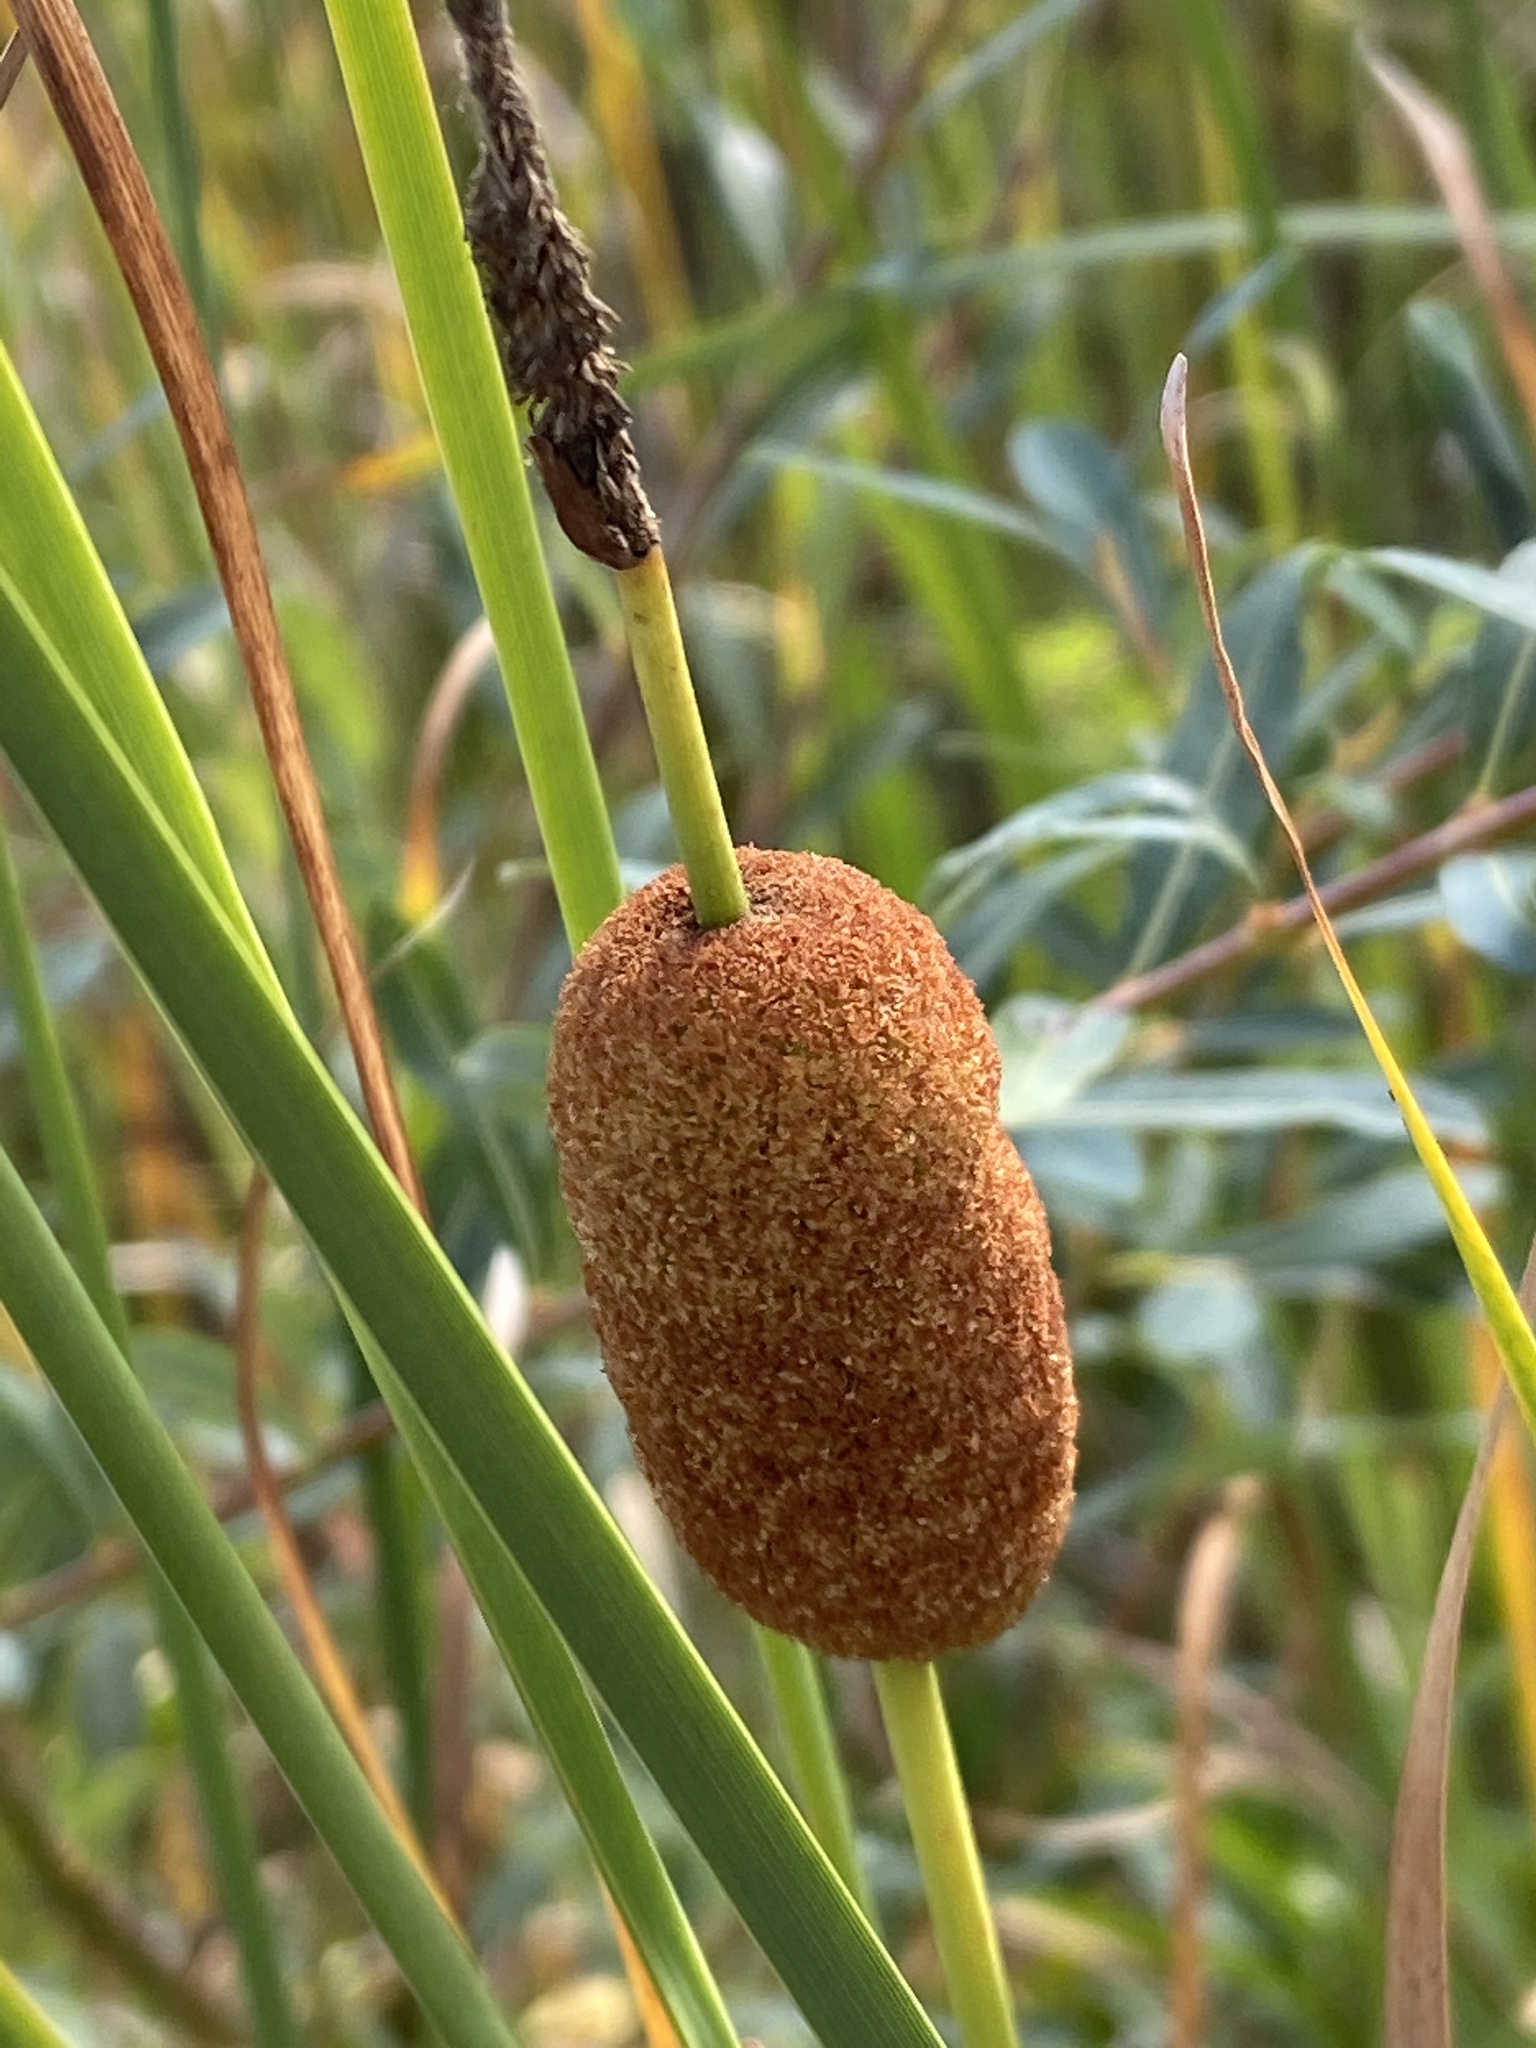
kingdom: Plantae
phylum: Tracheophyta
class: Liliopsida
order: Poales
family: Typhaceae
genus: Typha
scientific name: Typha latifolia
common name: Broadleaf cattail
